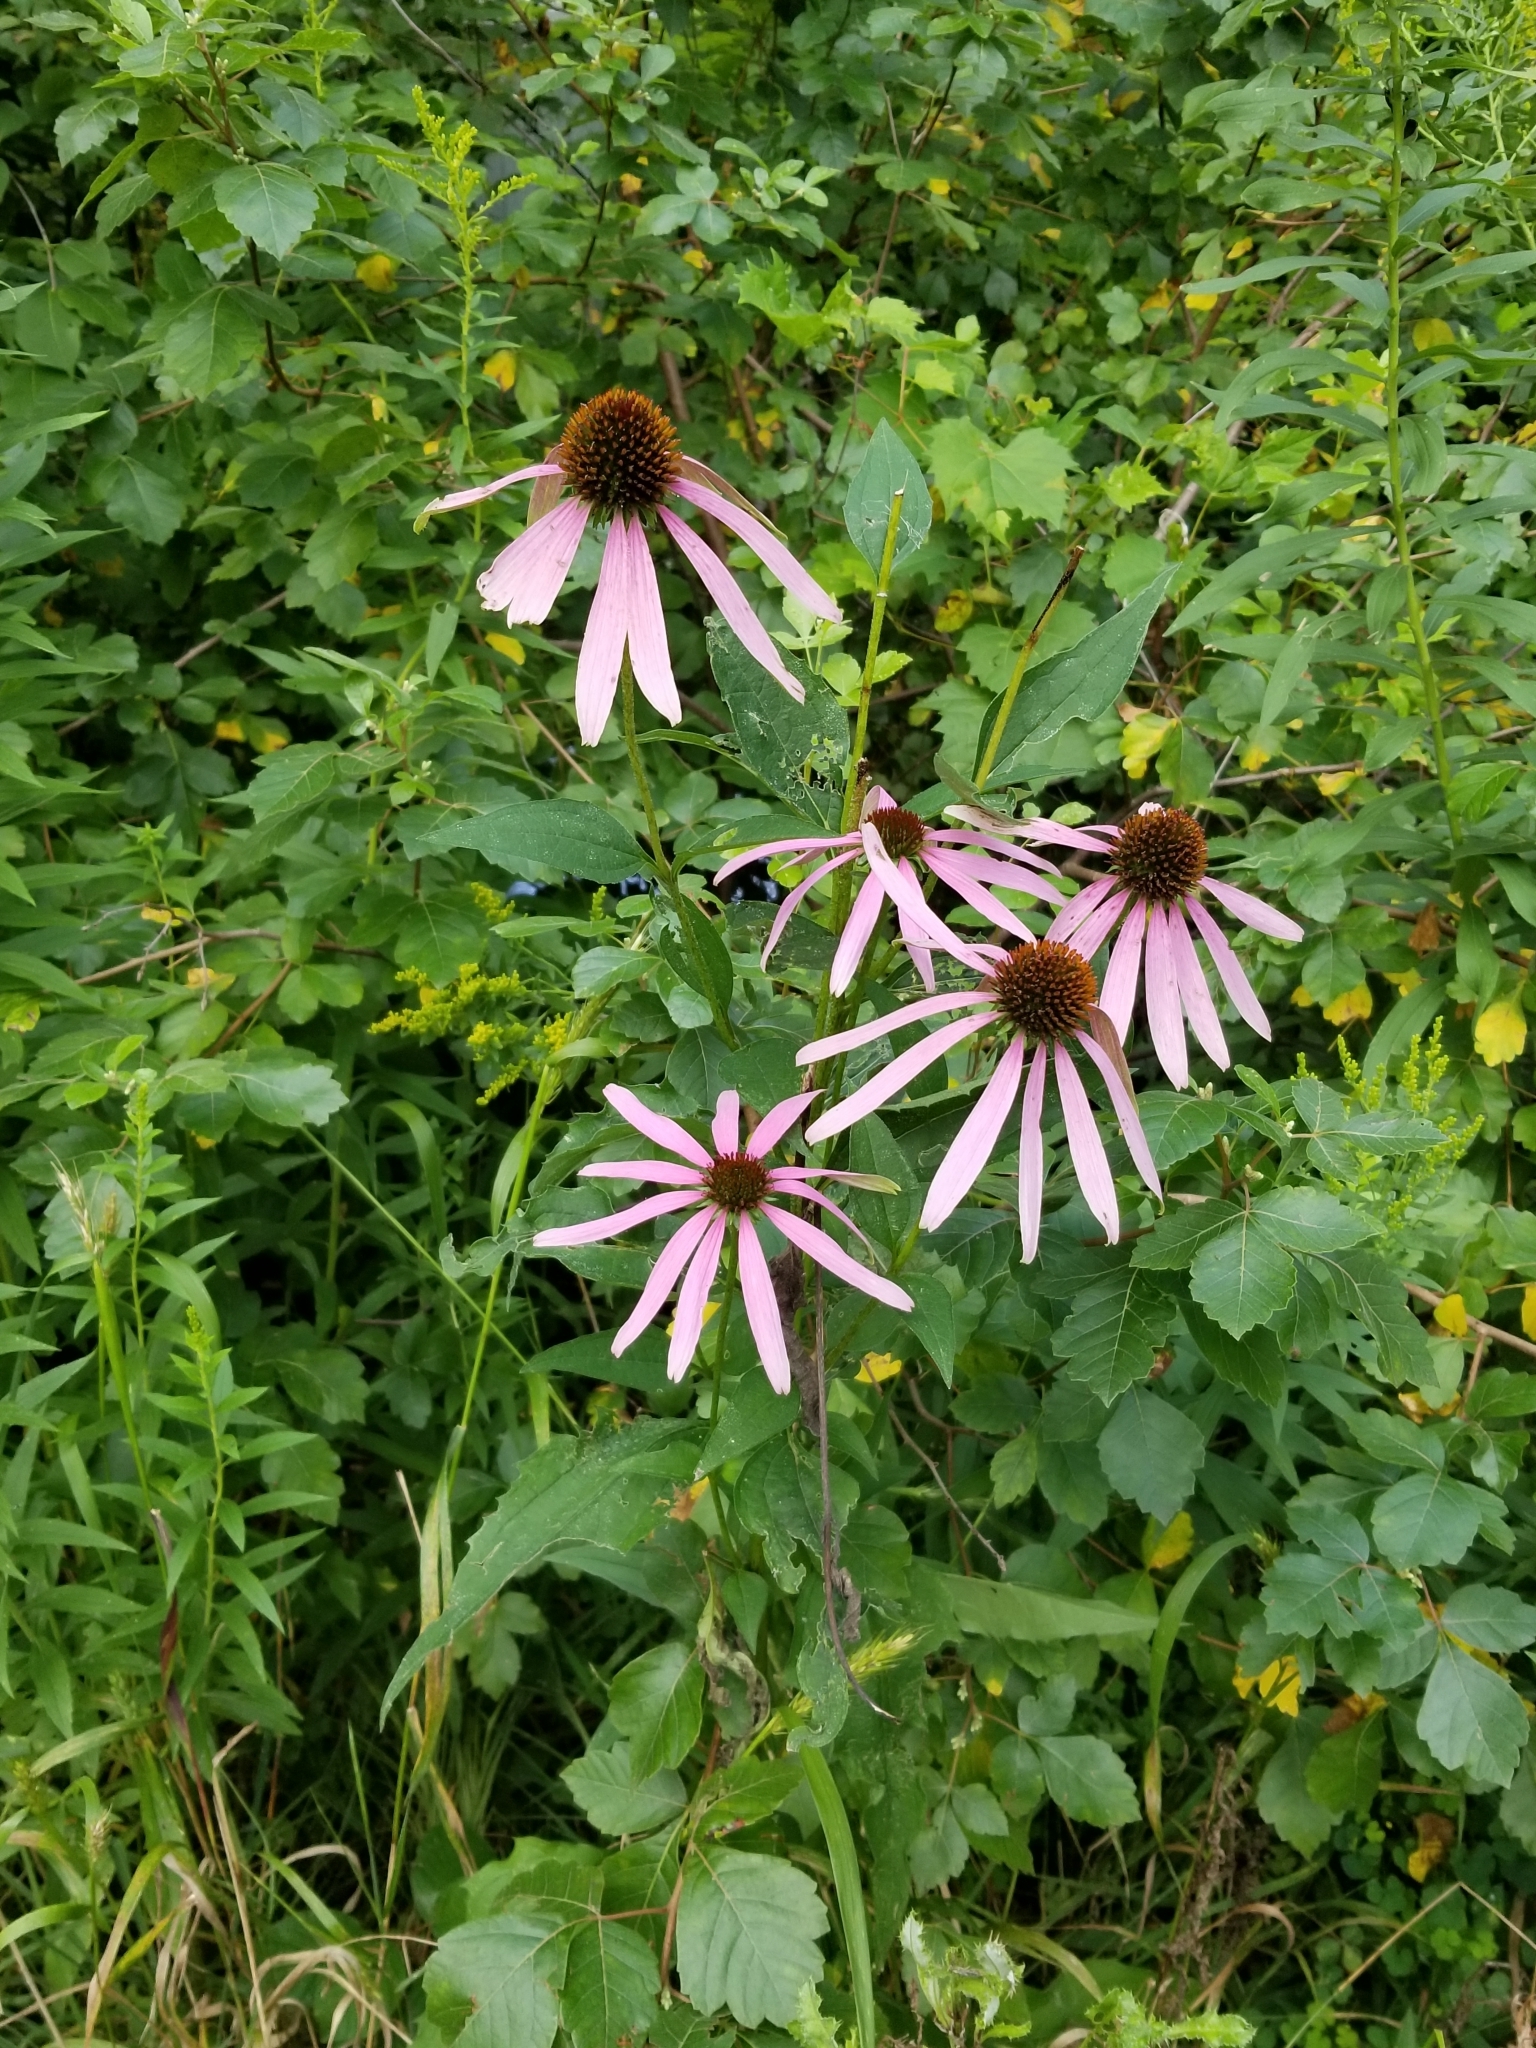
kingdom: Plantae
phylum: Tracheophyta
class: Magnoliopsida
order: Asterales
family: Asteraceae
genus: Echinacea
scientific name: Echinacea purpurea
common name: Broad-leaved purple coneflower
